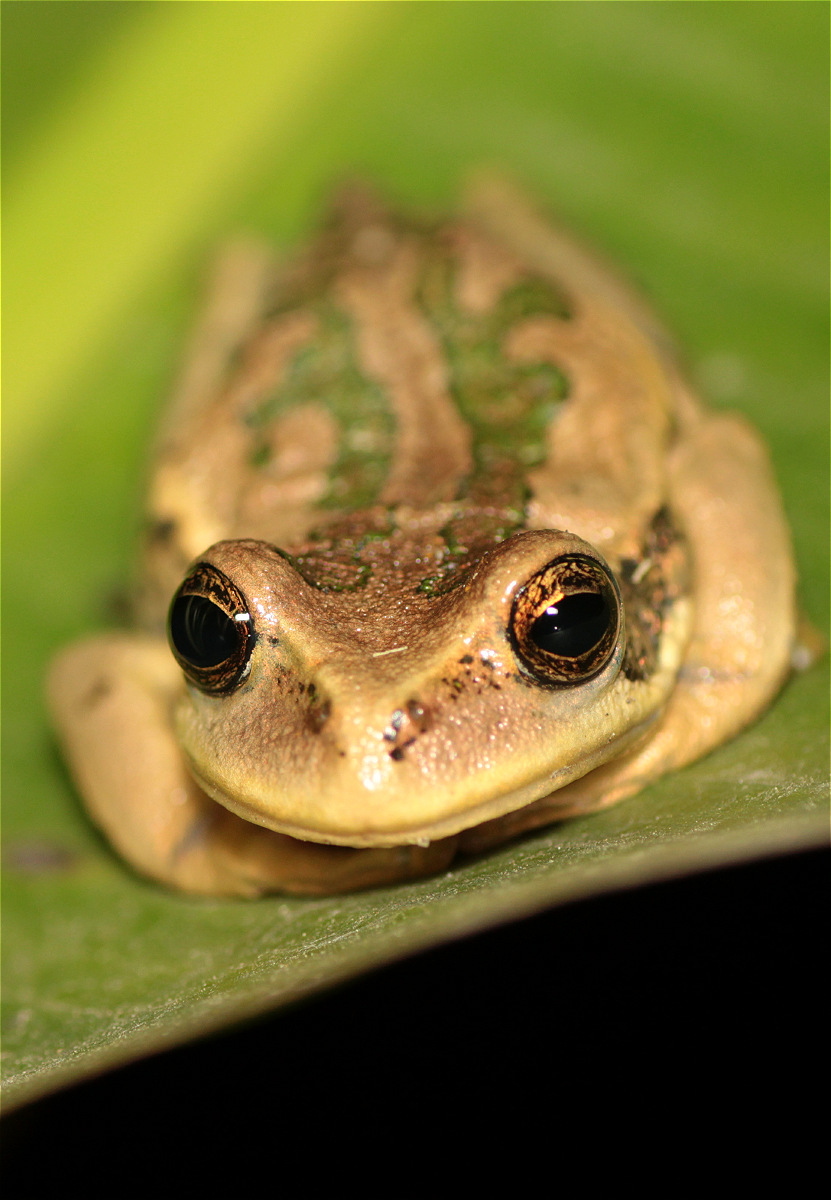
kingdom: Animalia
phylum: Chordata
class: Amphibia
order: Anura
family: Hemiphractidae
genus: Gastrotheca
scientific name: Gastrotheca cuencana
